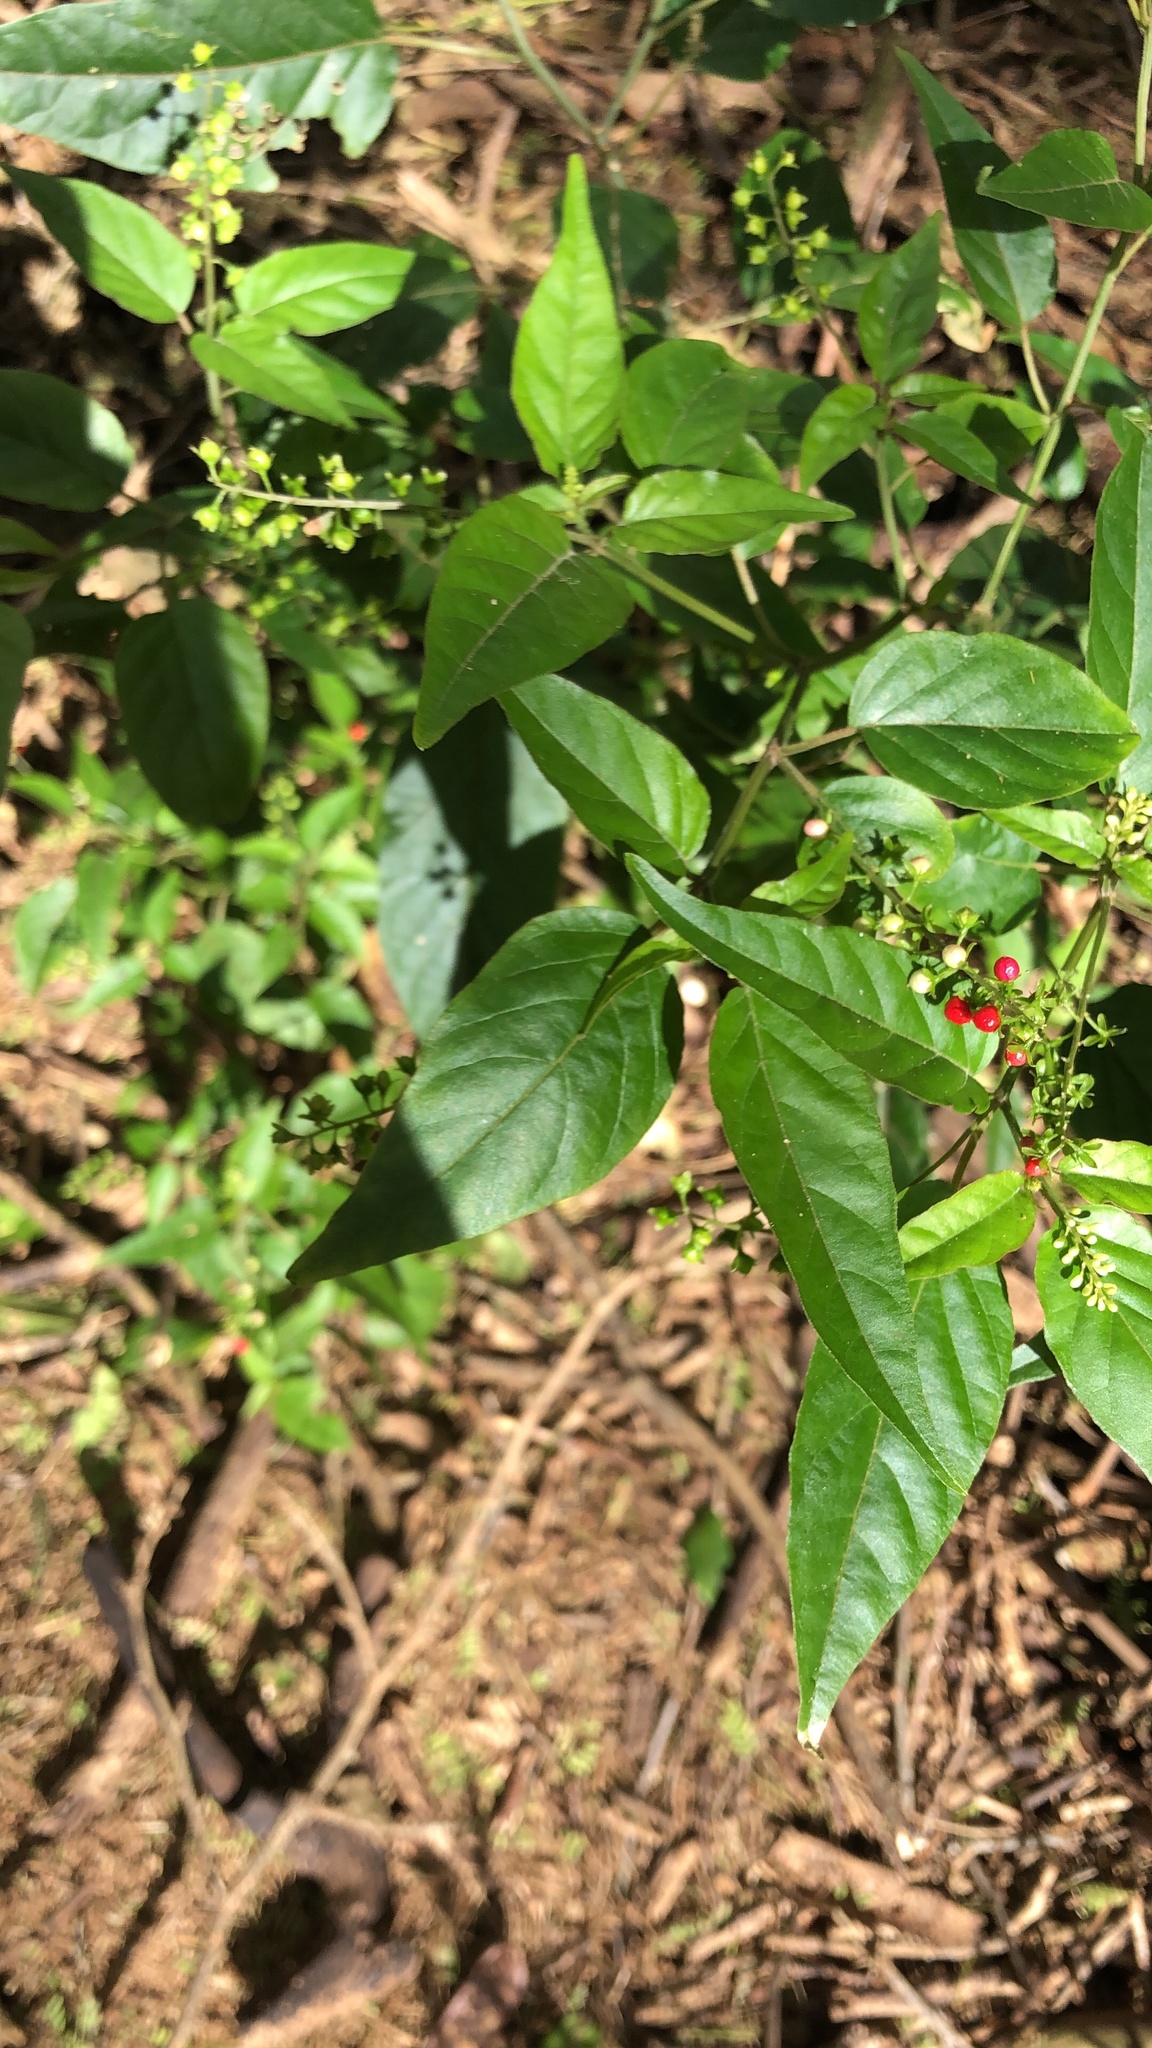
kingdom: Plantae
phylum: Tracheophyta
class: Magnoliopsida
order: Caryophyllales
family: Phytolaccaceae
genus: Rivina
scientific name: Rivina humilis
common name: Rougeplant
